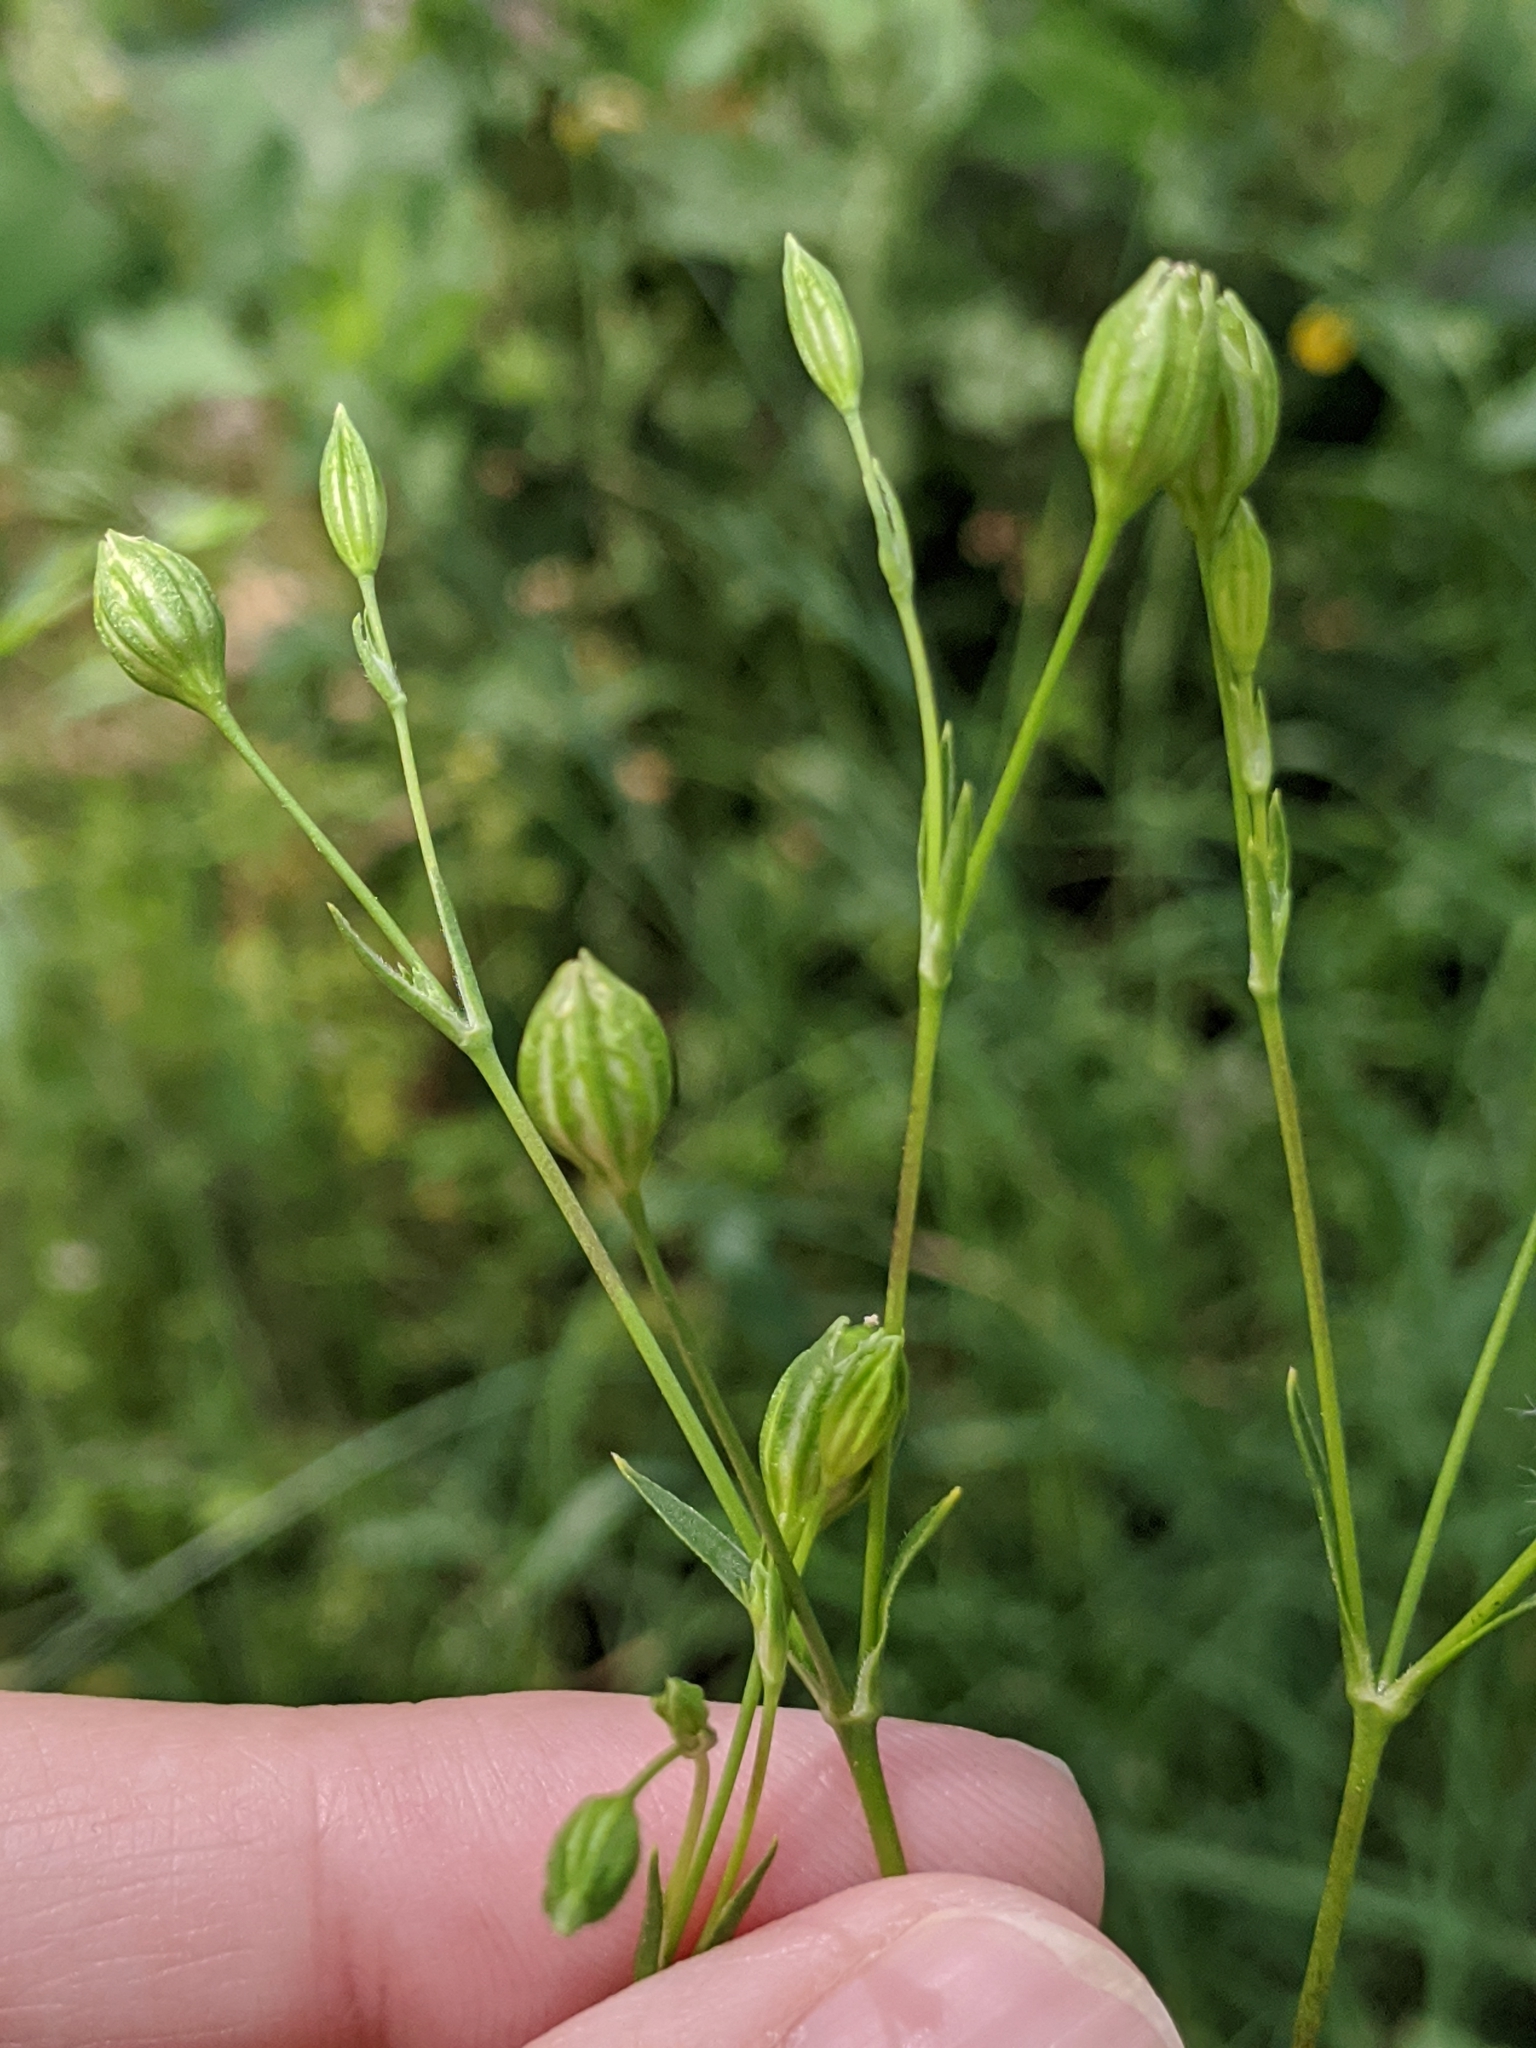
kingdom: Plantae
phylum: Tracheophyta
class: Magnoliopsida
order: Caryophyllales
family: Caryophyllaceae
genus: Silene
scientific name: Silene antirrhina
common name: Sleepy catchfly
